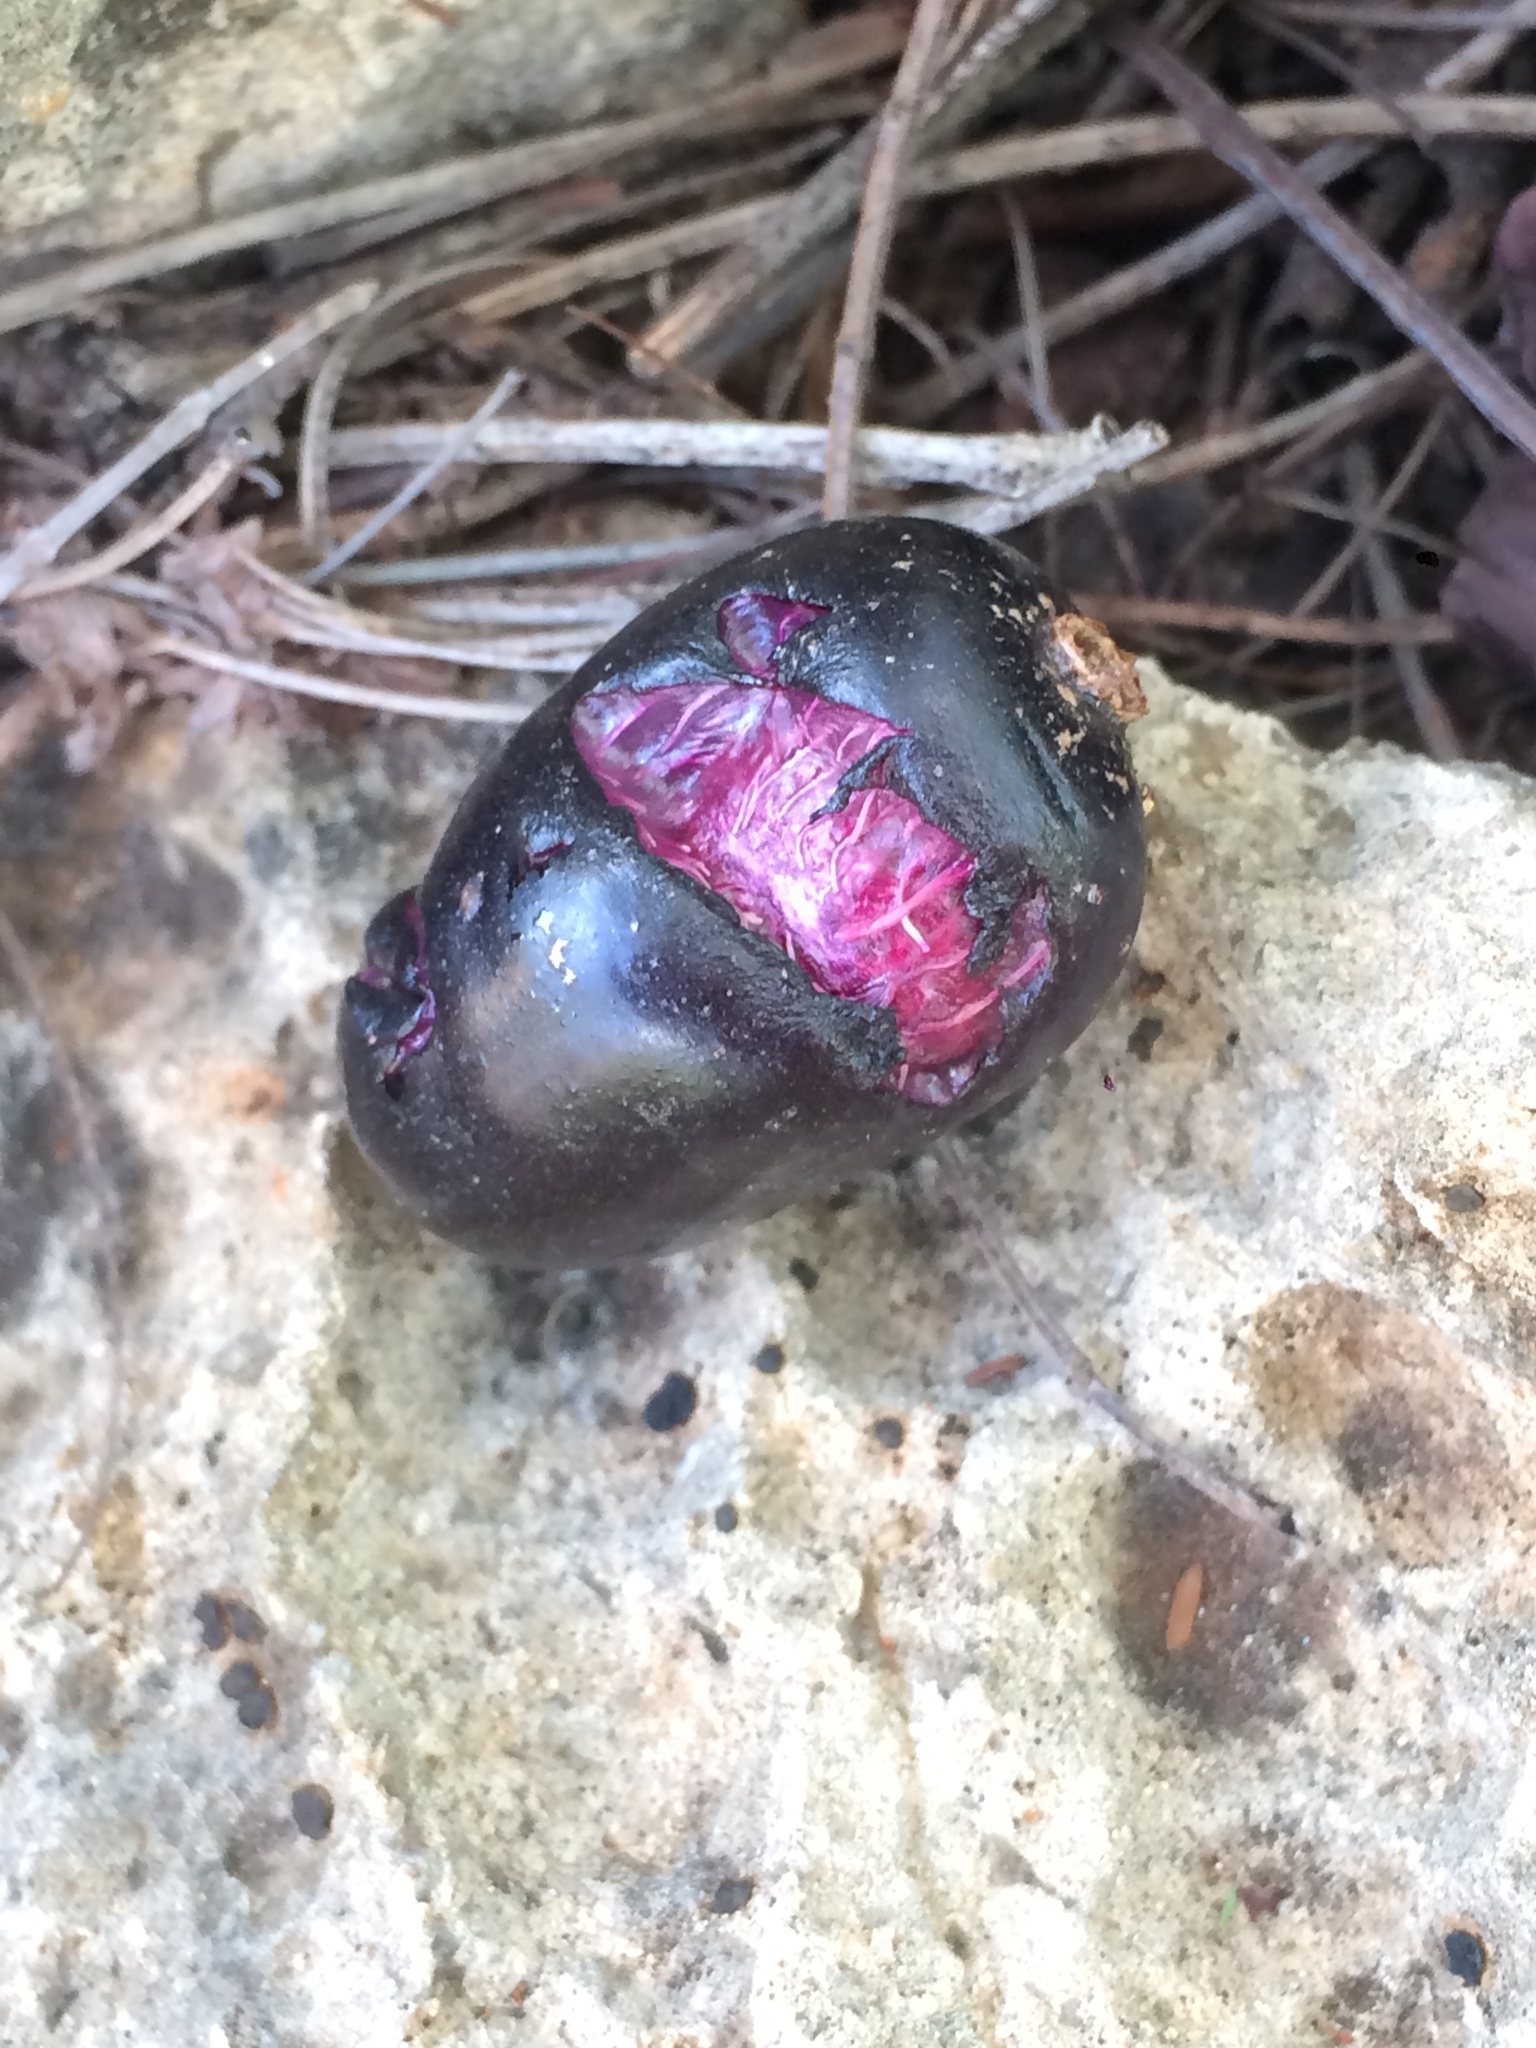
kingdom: Plantae
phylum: Tracheophyta
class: Magnoliopsida
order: Myrtales
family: Myrtaceae
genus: Syzygium
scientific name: Syzygium cumini
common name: Java plum
